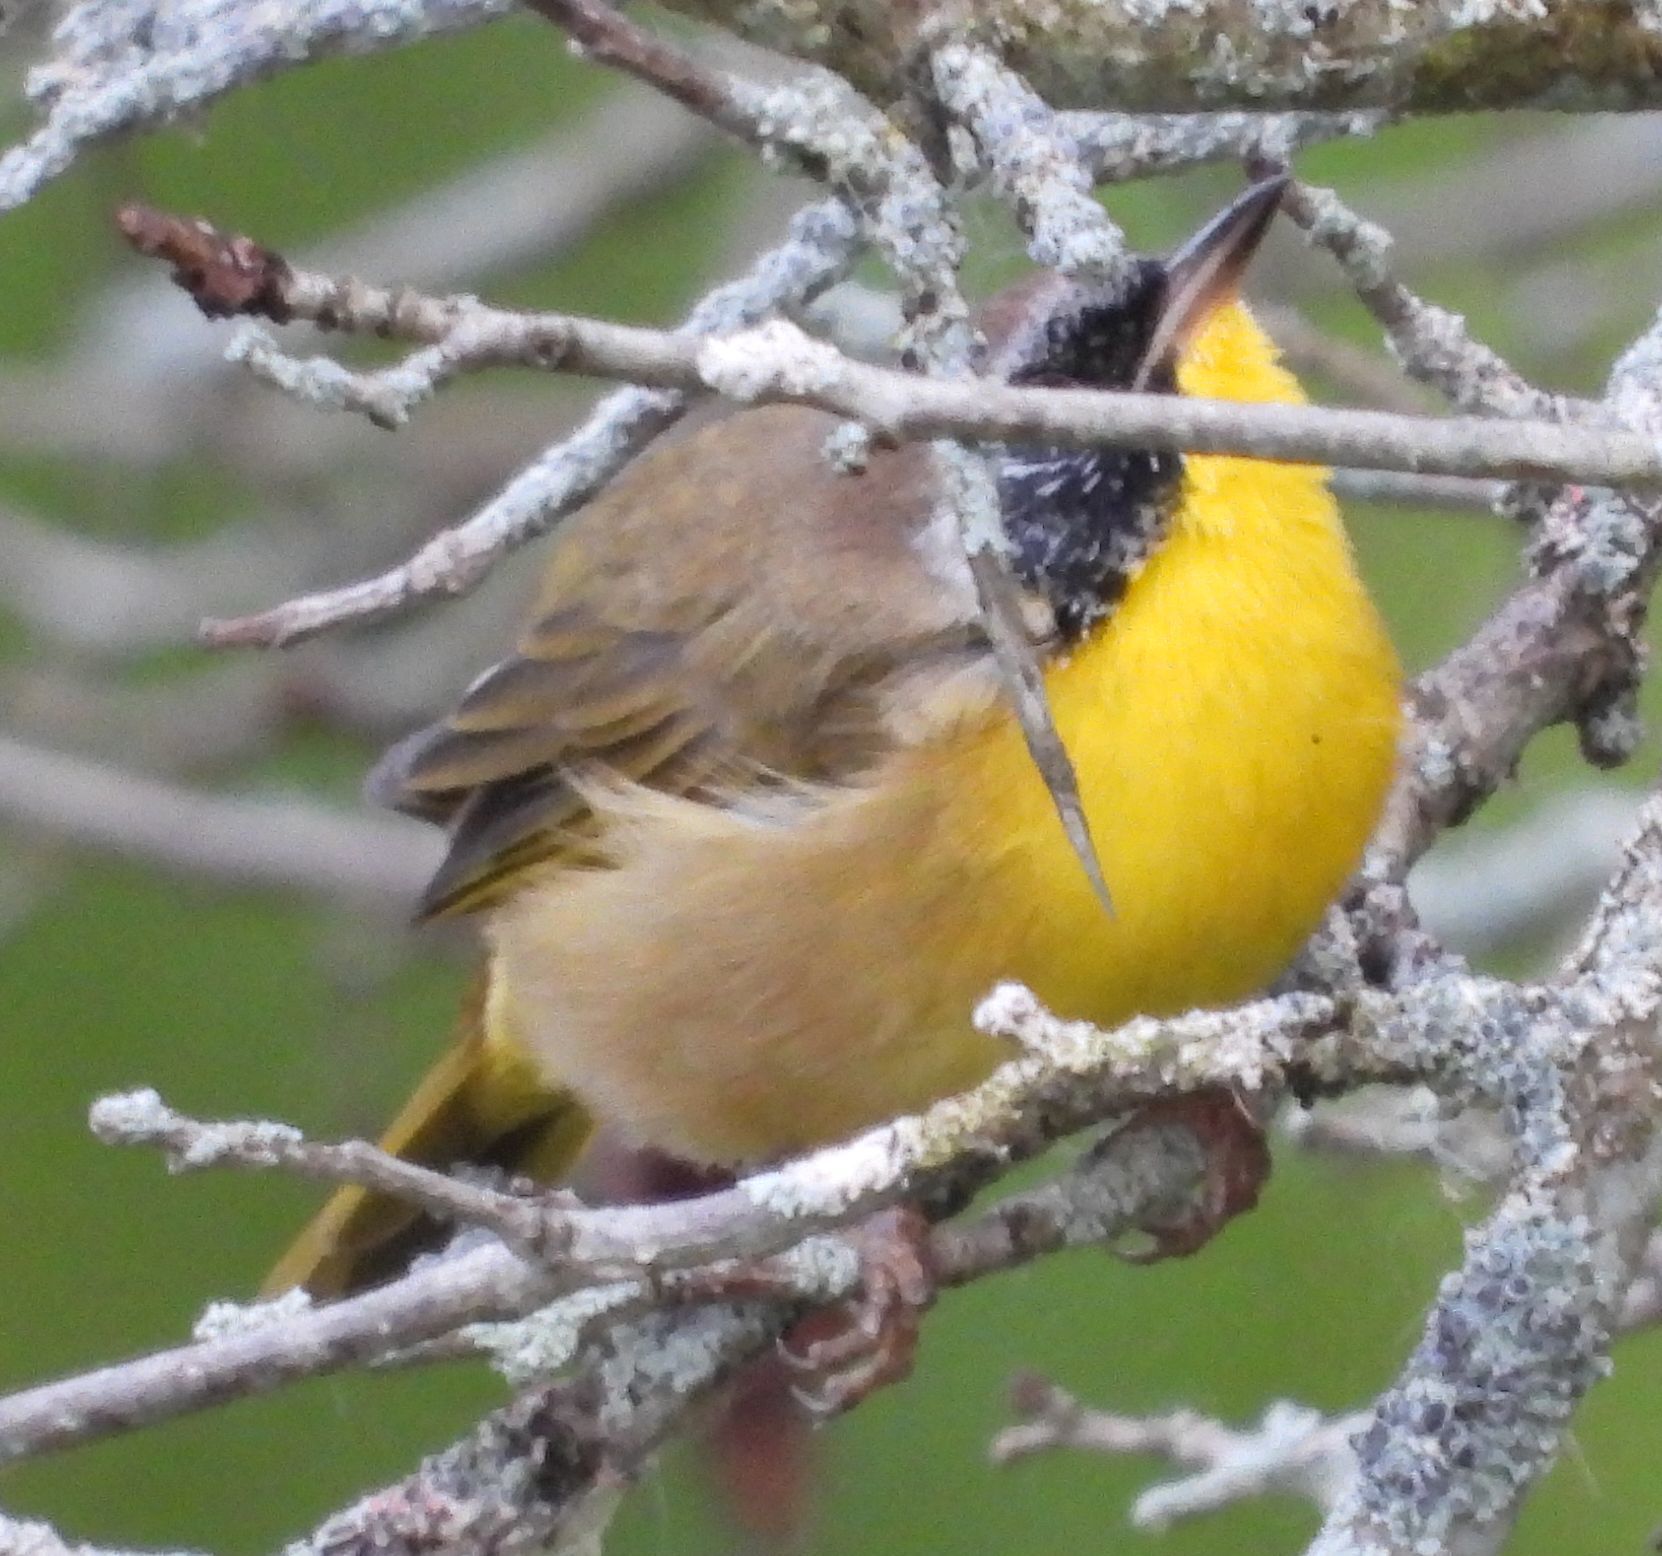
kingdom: Animalia
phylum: Chordata
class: Aves
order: Passeriformes
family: Parulidae
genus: Geothlypis
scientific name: Geothlypis trichas
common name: Common yellowthroat
